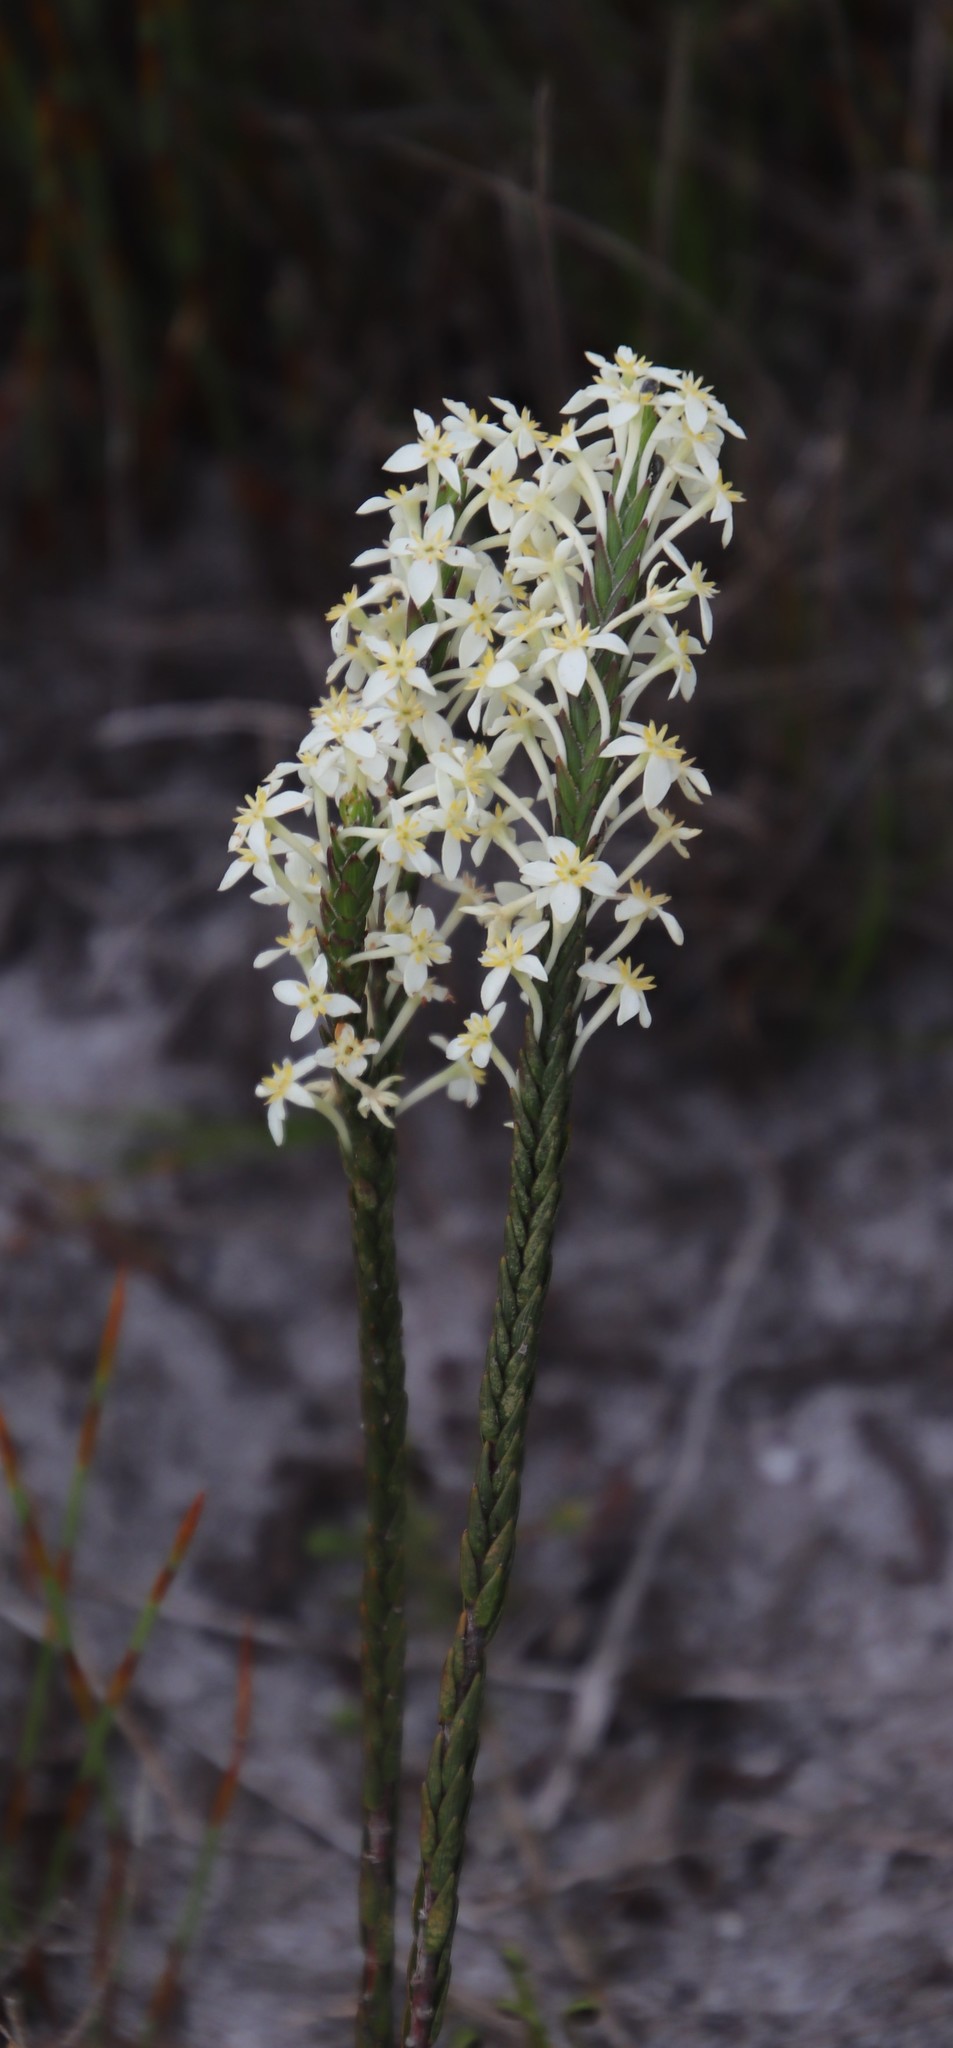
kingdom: Plantae
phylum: Tracheophyta
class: Magnoliopsida
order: Malvales
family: Thymelaeaceae
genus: Struthiola
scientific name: Struthiola ciliata
